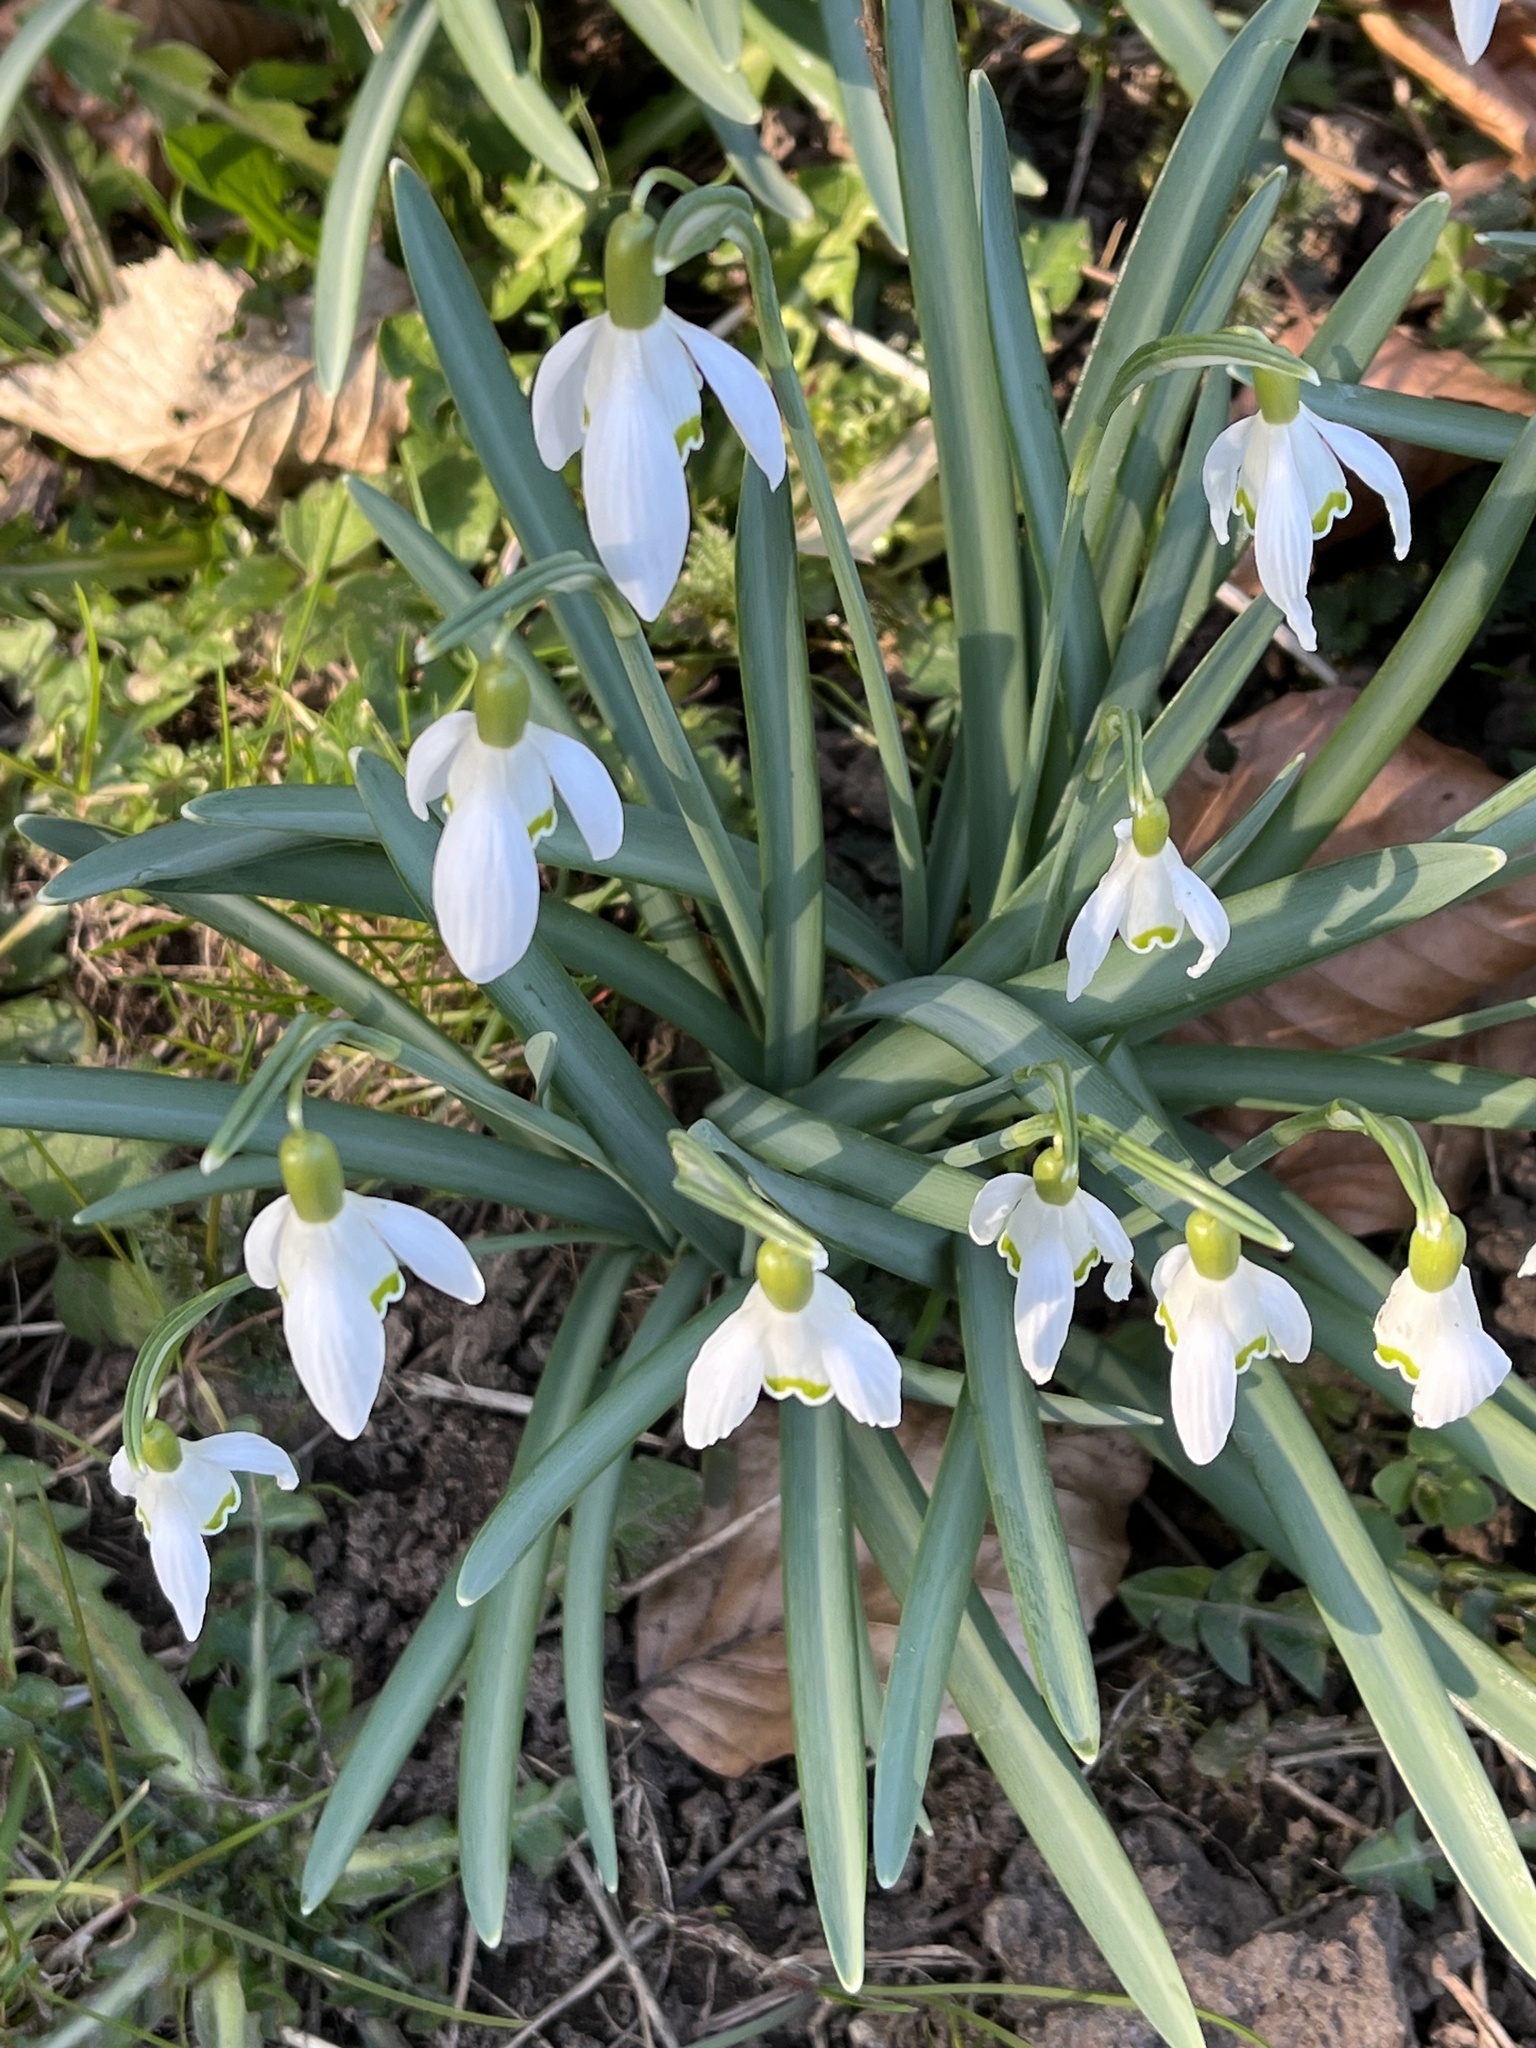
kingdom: Plantae
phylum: Tracheophyta
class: Liliopsida
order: Asparagales
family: Amaryllidaceae
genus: Galanthus
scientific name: Galanthus nivalis
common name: Snowdrop
